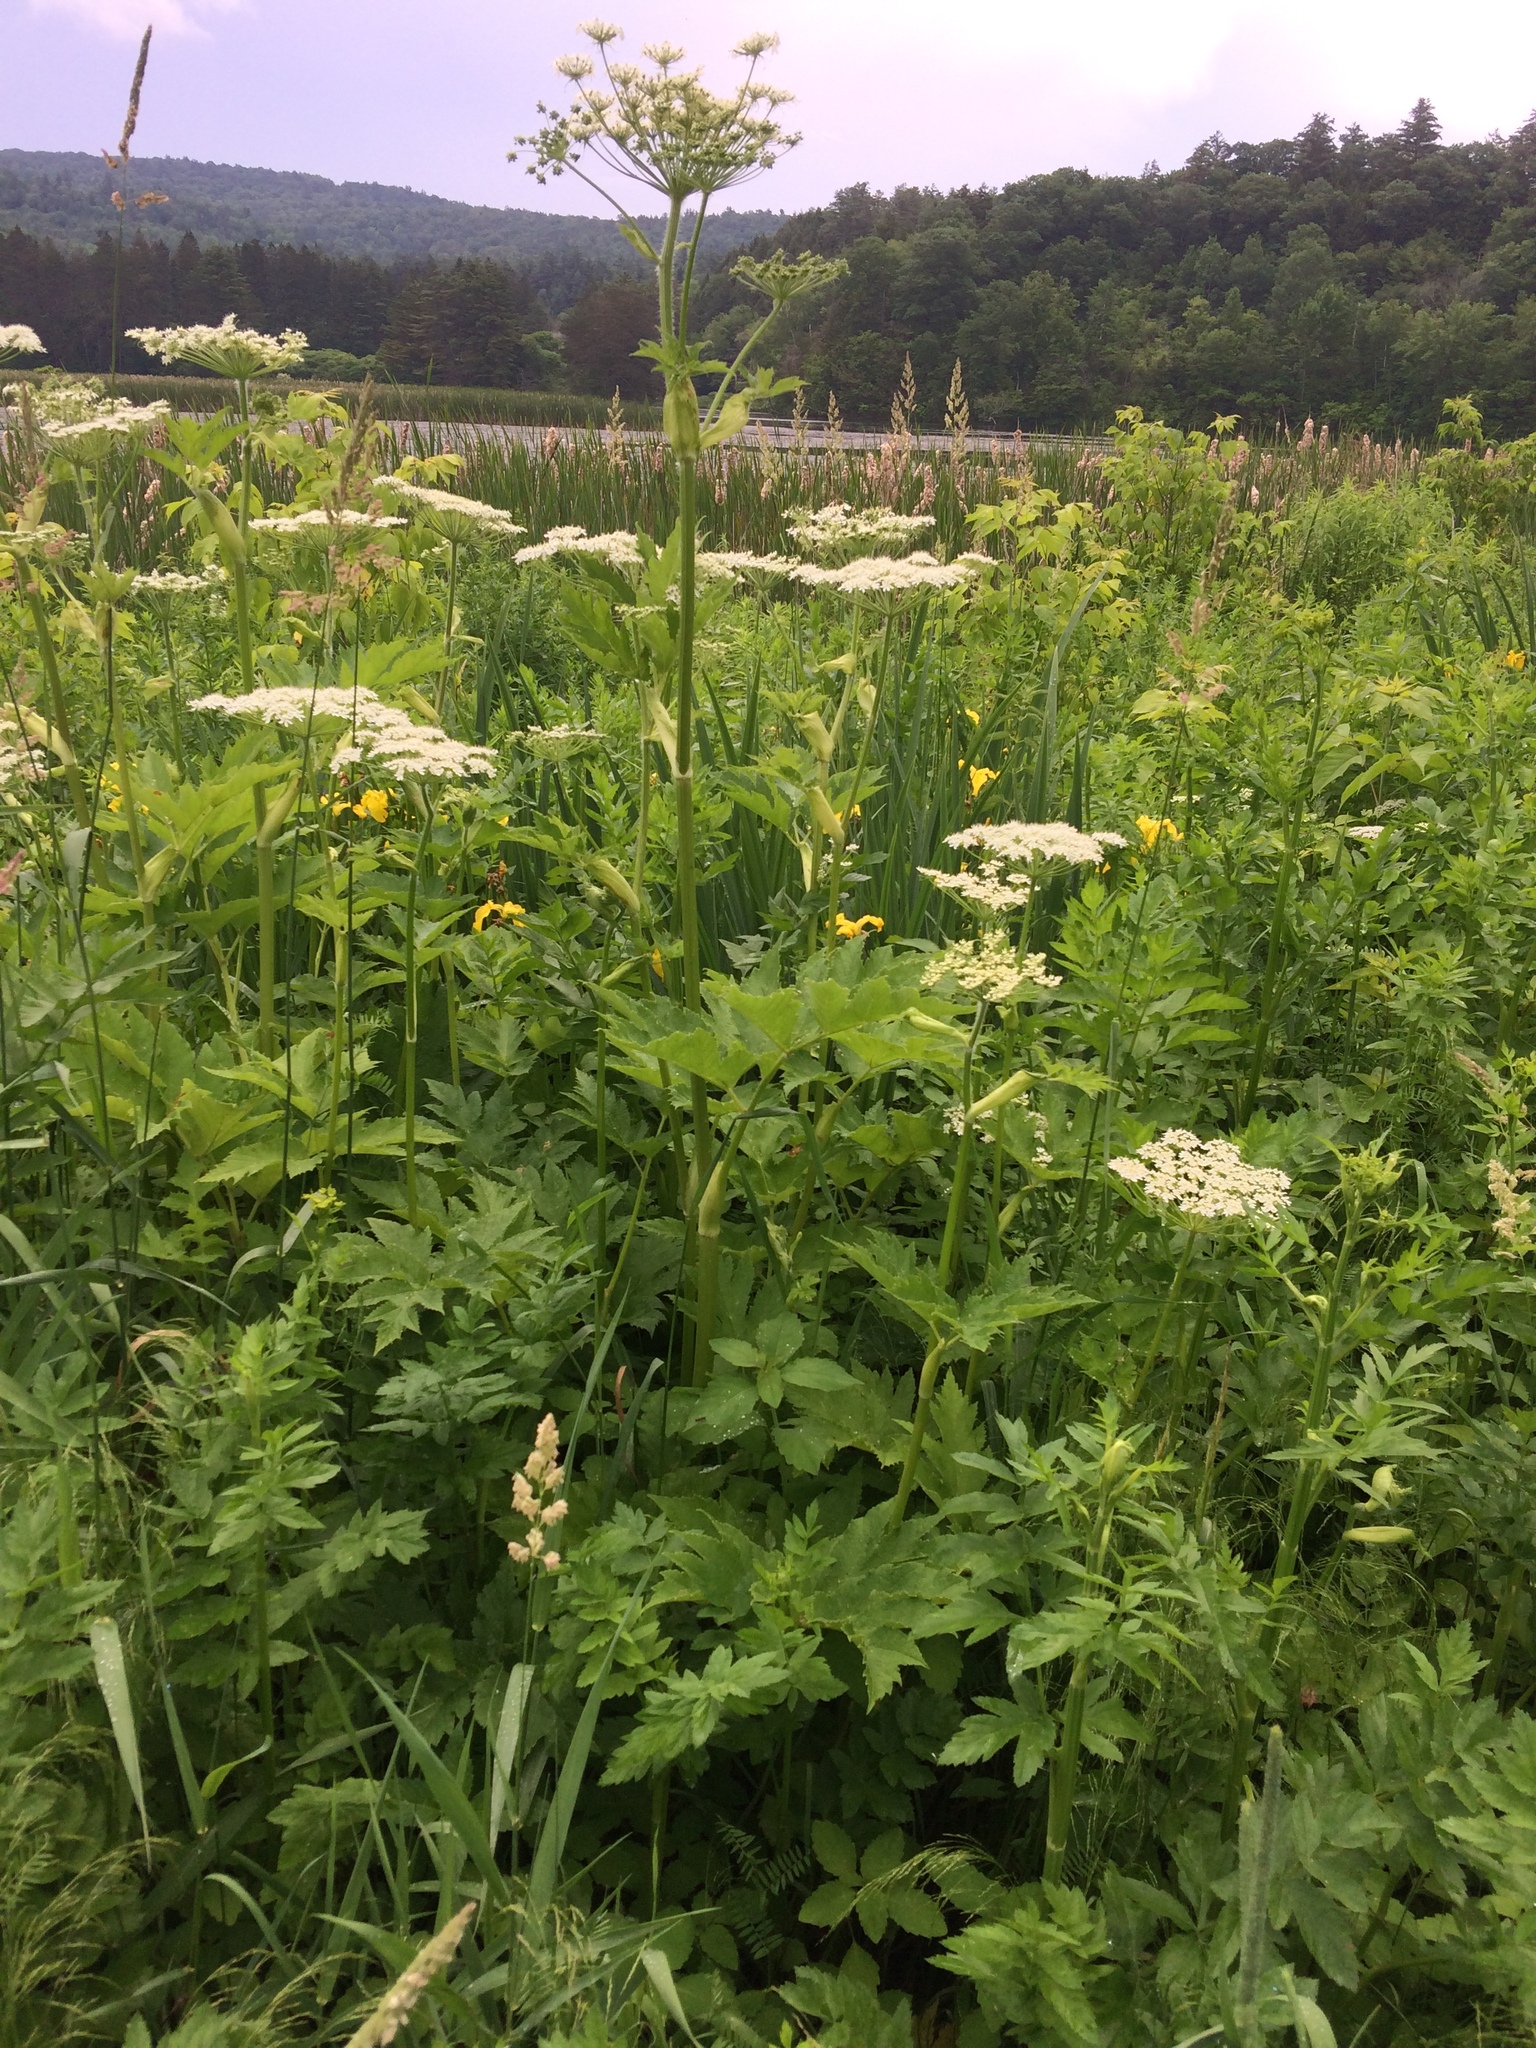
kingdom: Plantae
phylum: Tracheophyta
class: Magnoliopsida
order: Apiales
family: Apiaceae
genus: Heracleum
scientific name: Heracleum maximum
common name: American cow parsnip
